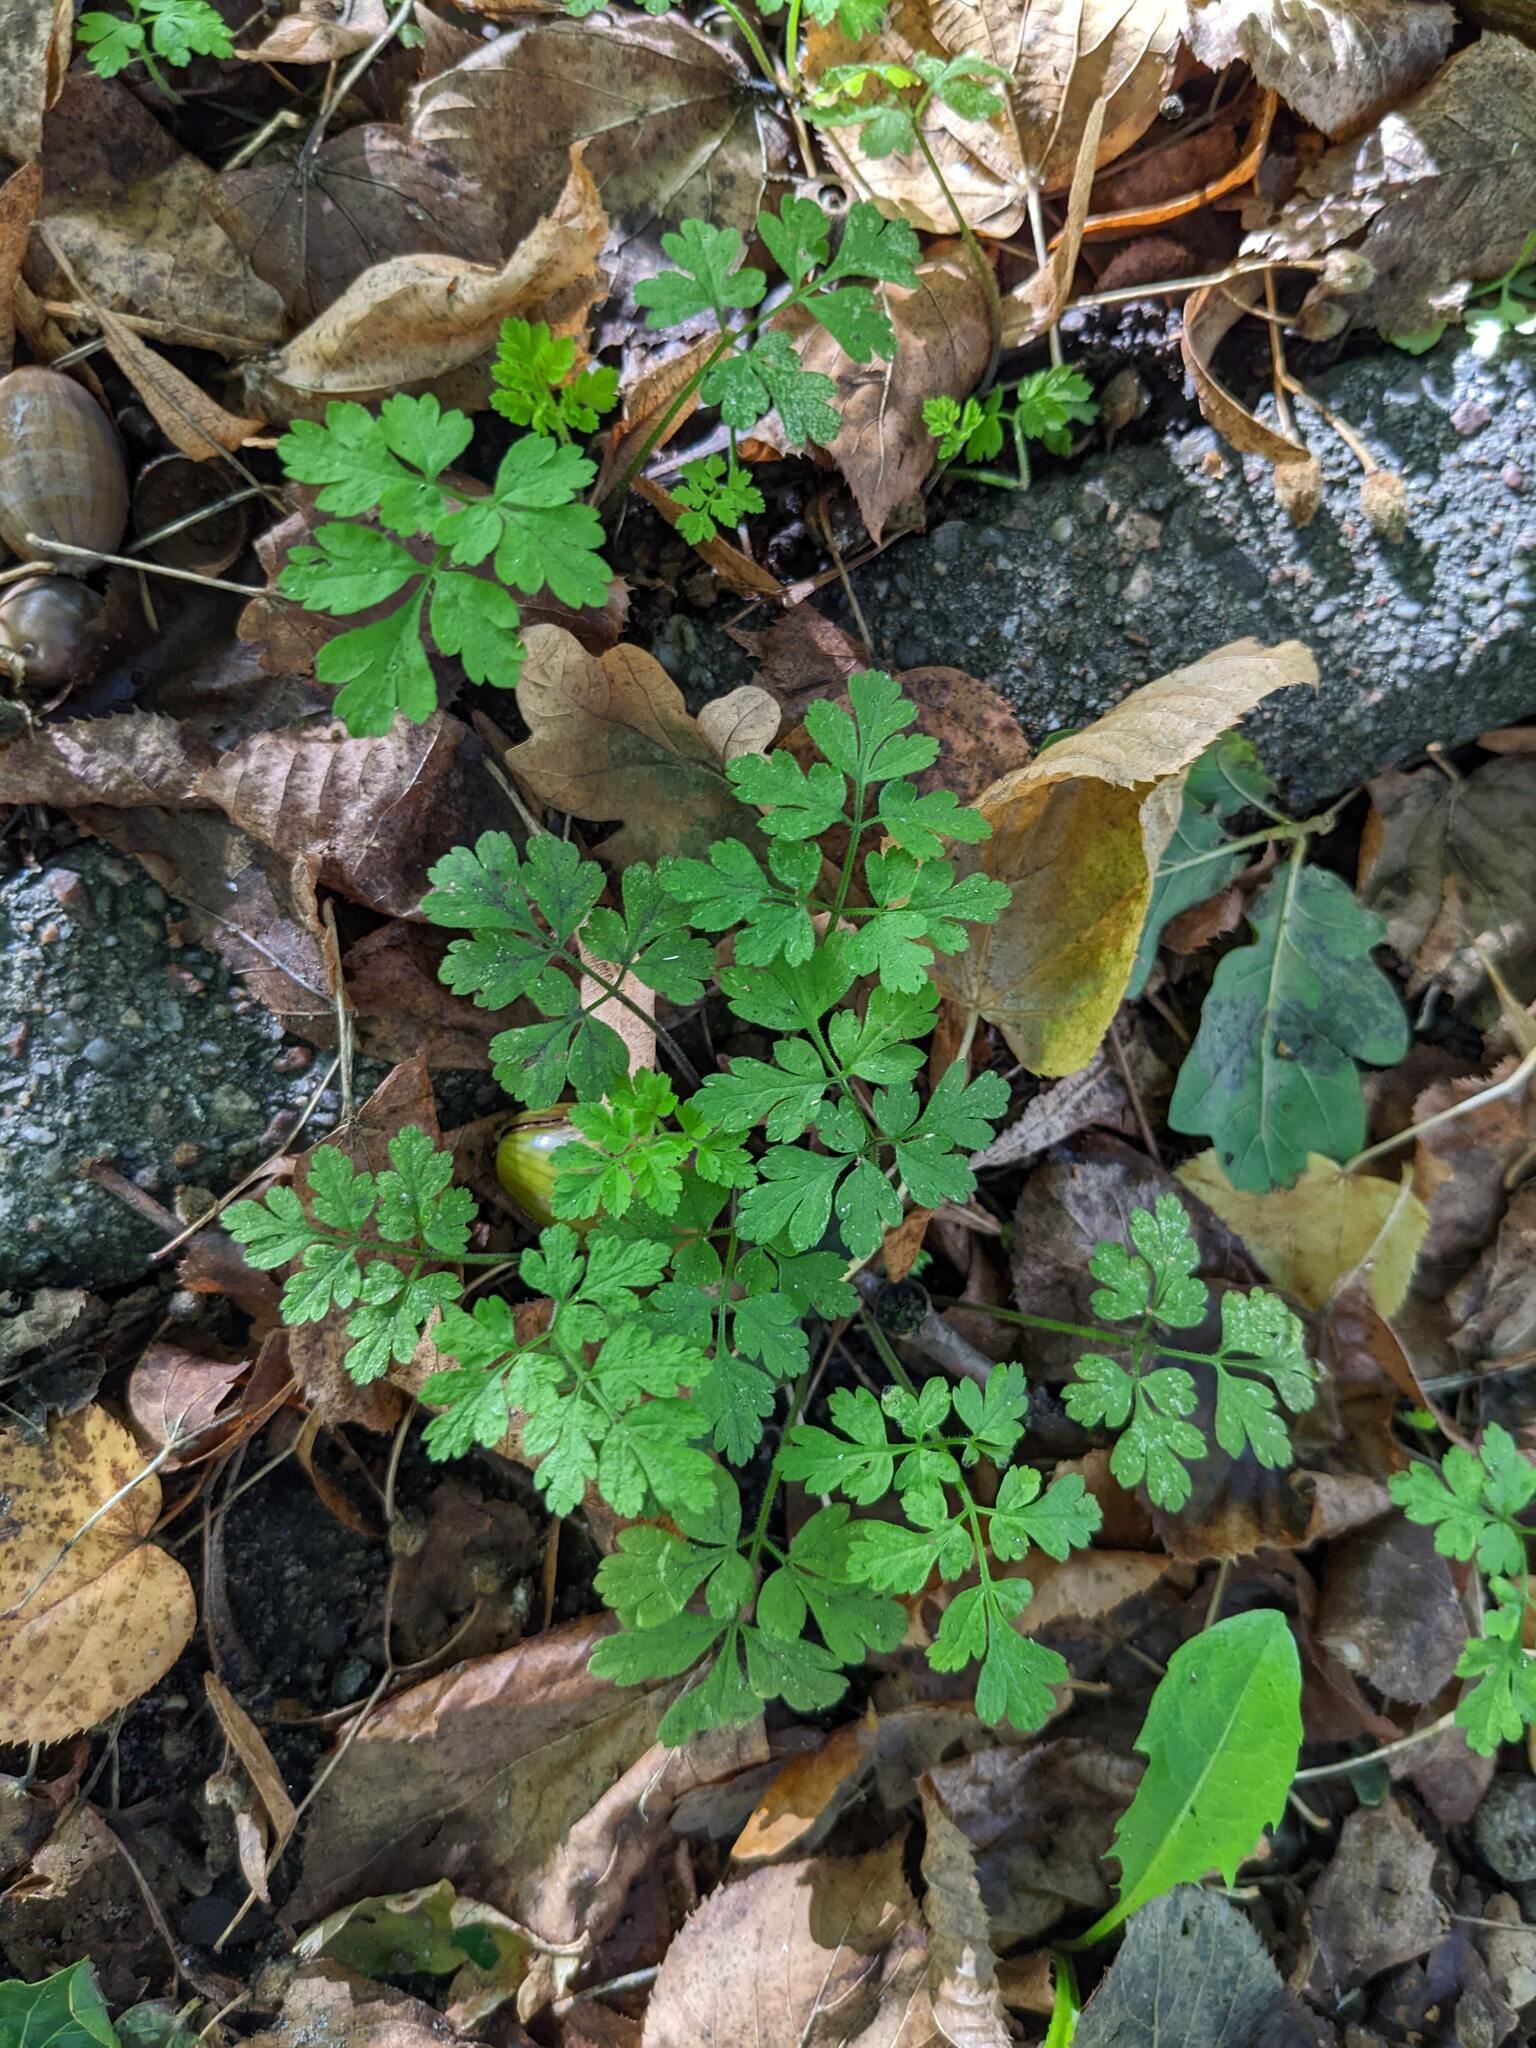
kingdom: Plantae
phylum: Tracheophyta
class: Magnoliopsida
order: Geraniales
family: Geraniaceae
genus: Geranium
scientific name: Geranium robertianum
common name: Herb-robert
